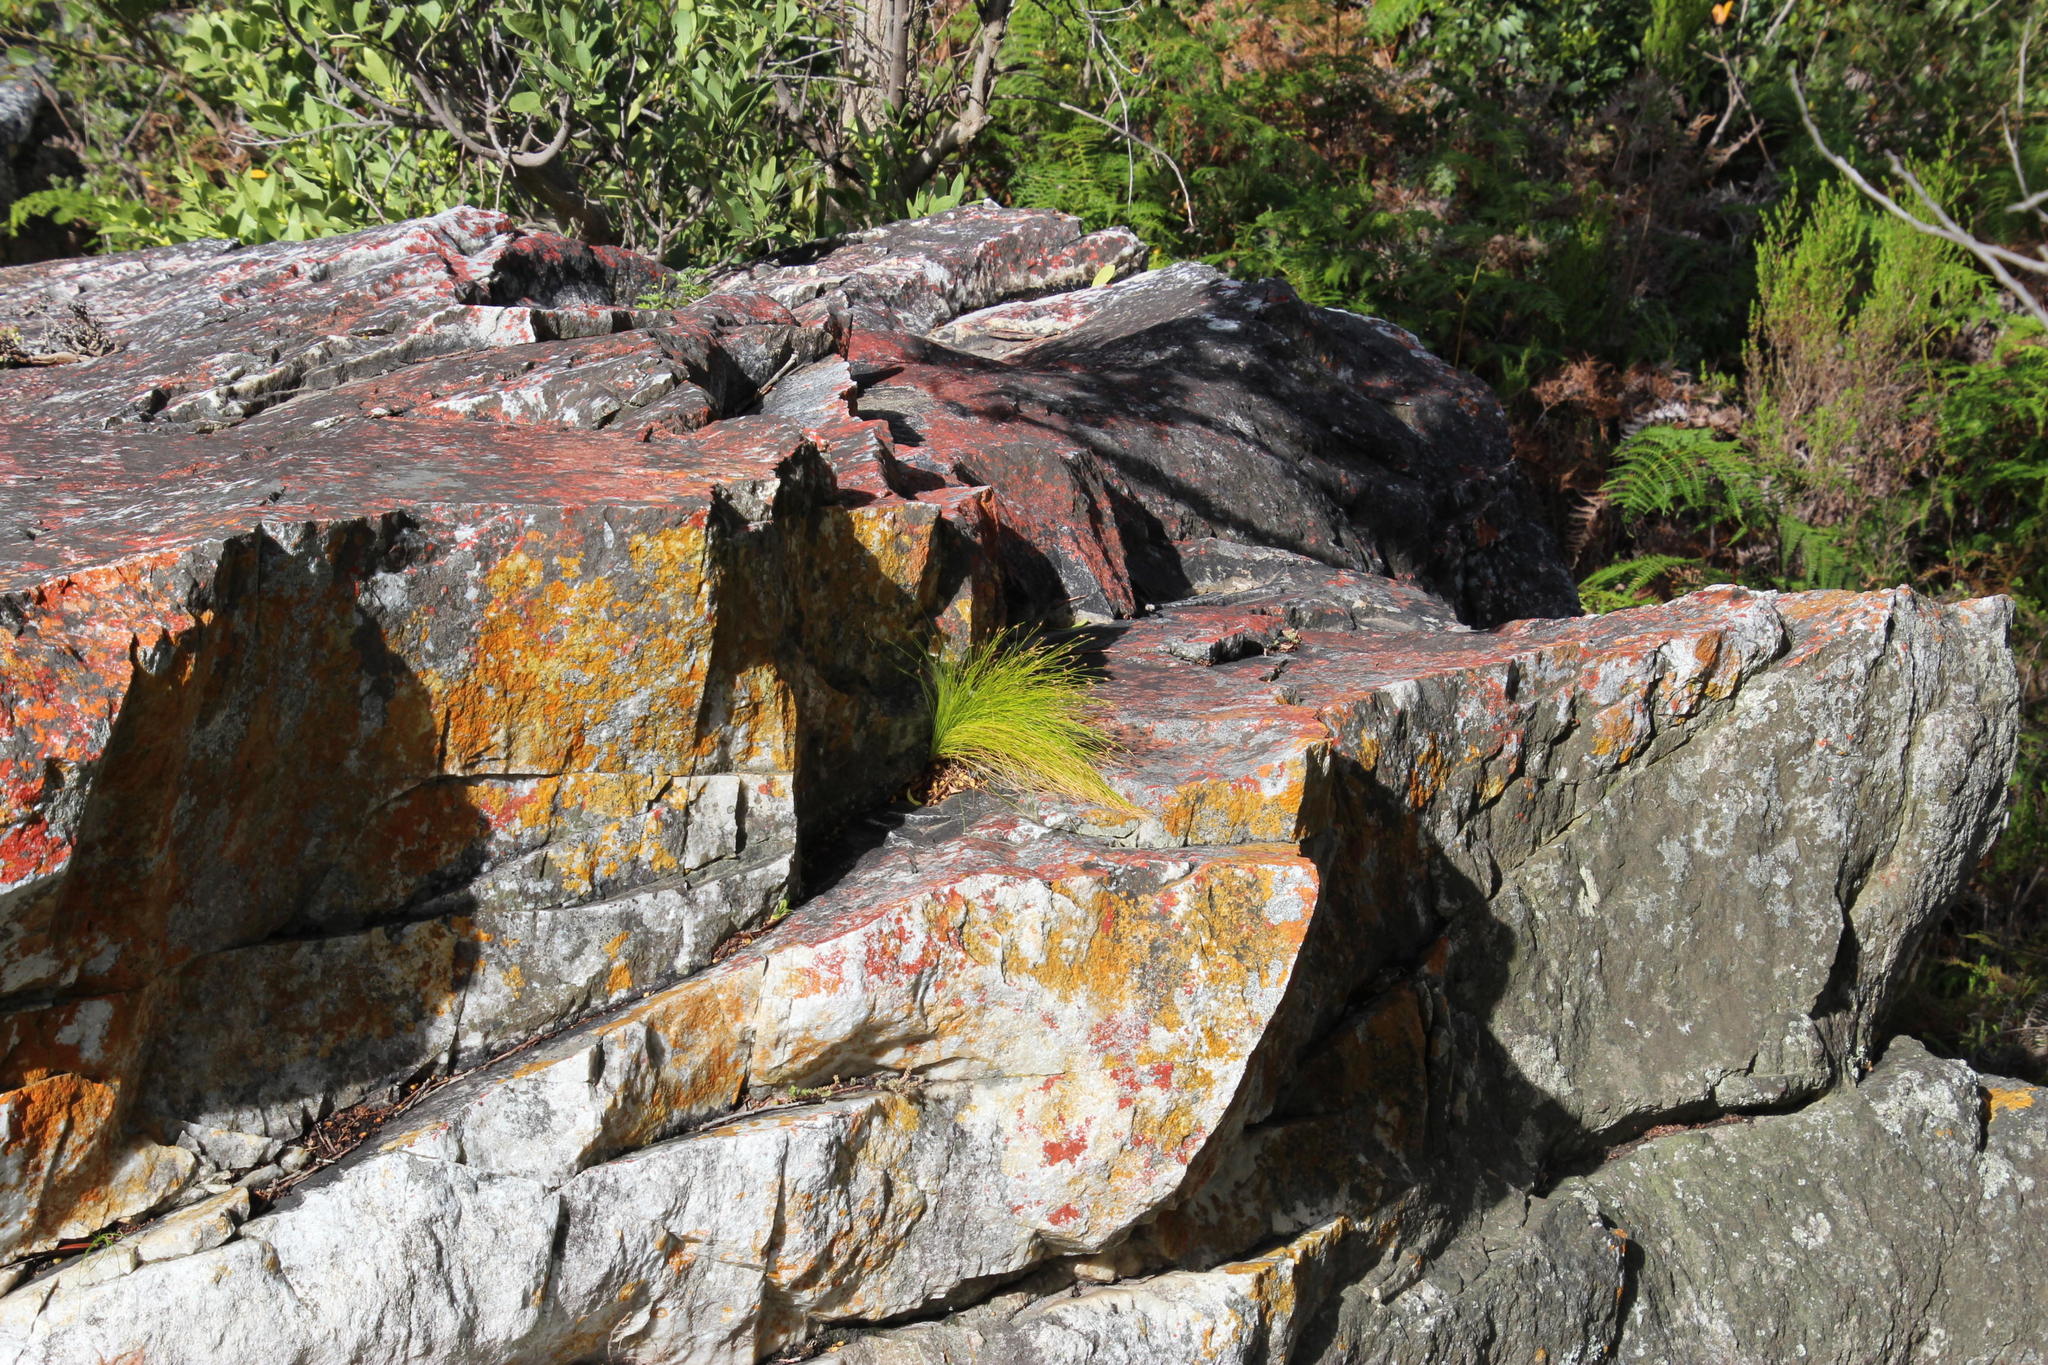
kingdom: Plantae
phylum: Tracheophyta
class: Liliopsida
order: Poales
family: Cyperaceae
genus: Ficinia
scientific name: Ficinia acuminata
